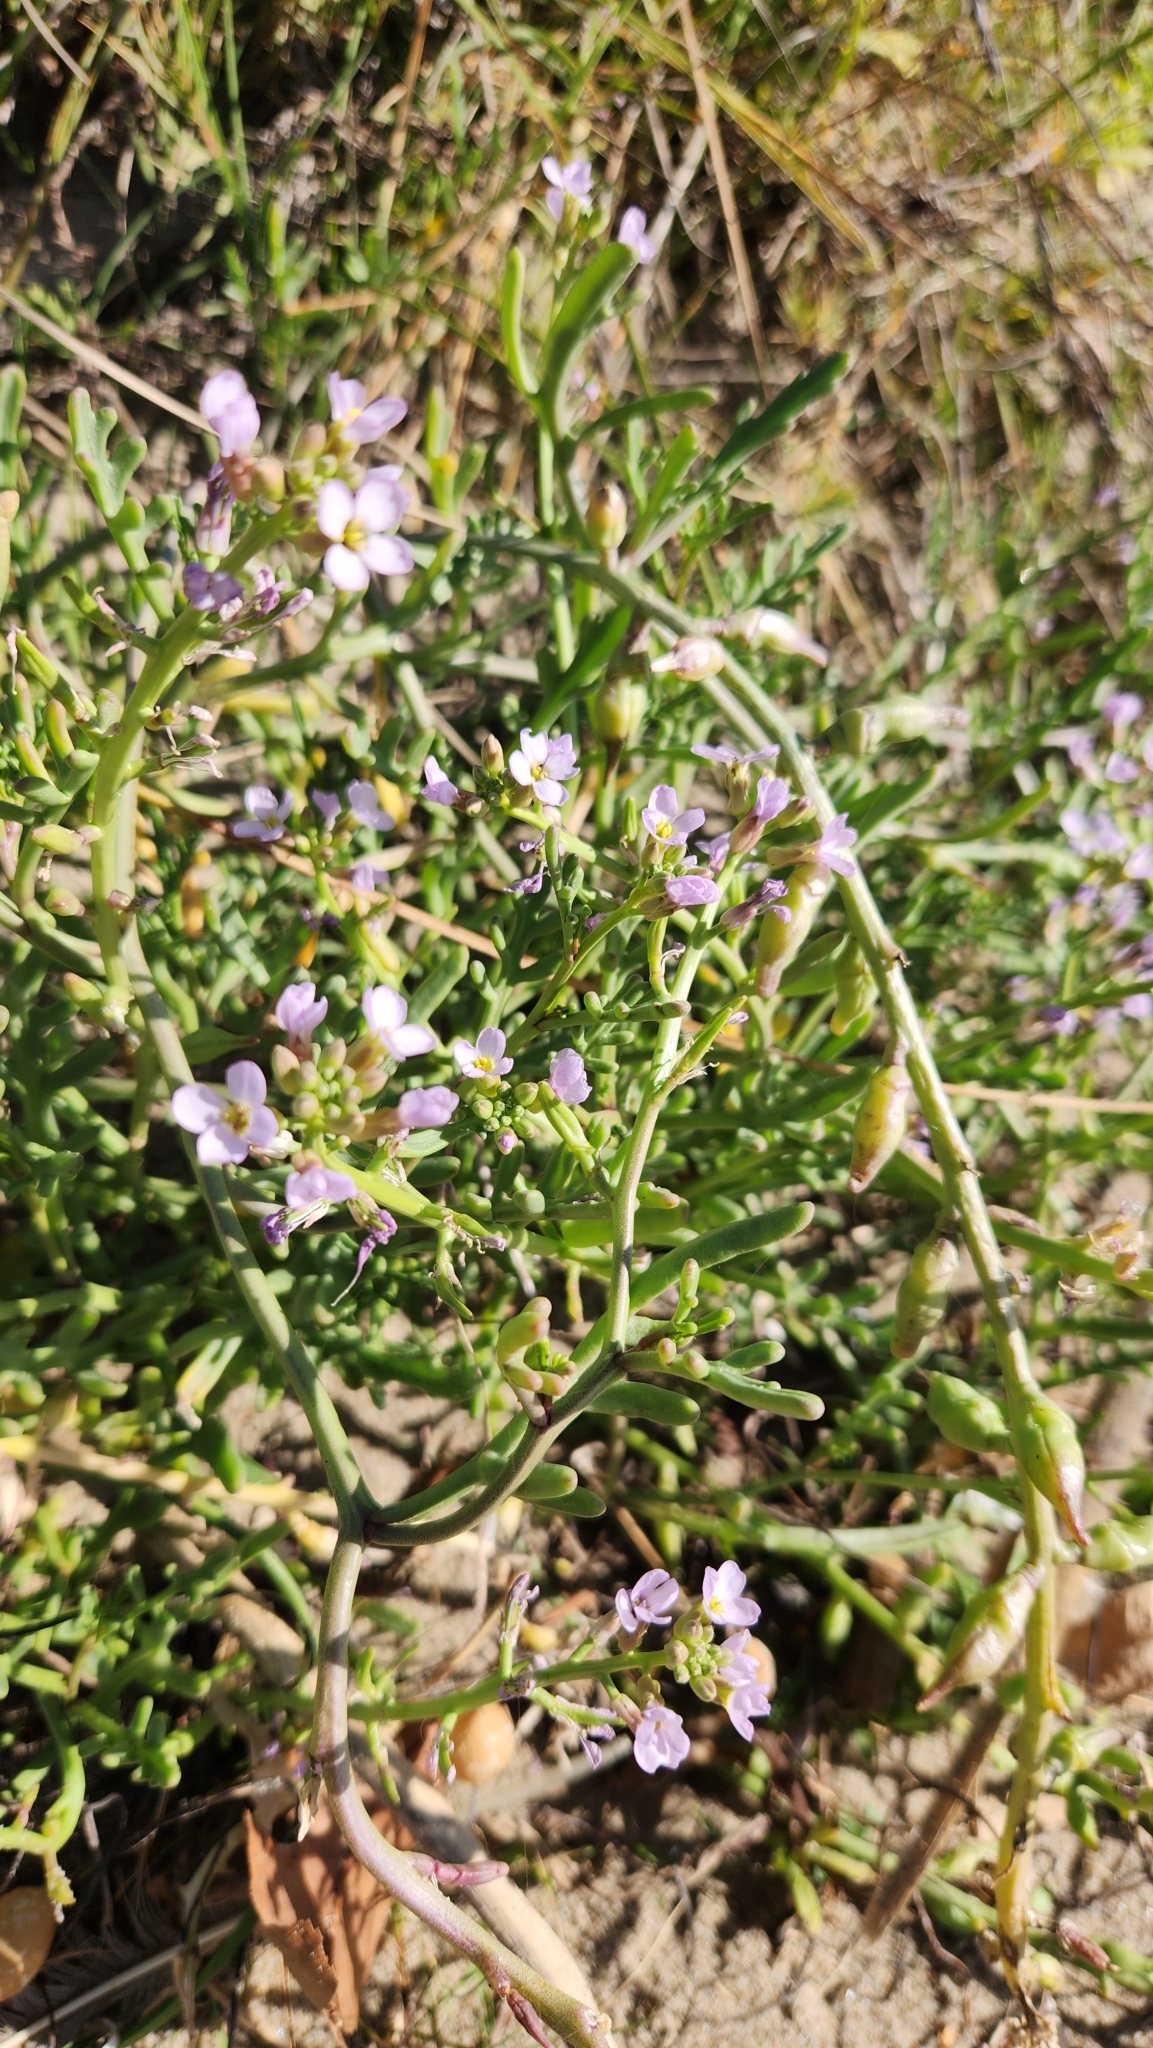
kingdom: Plantae
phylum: Tracheophyta
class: Magnoliopsida
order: Brassicales
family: Brassicaceae
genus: Cakile
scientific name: Cakile maritima
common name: Sea rocket
